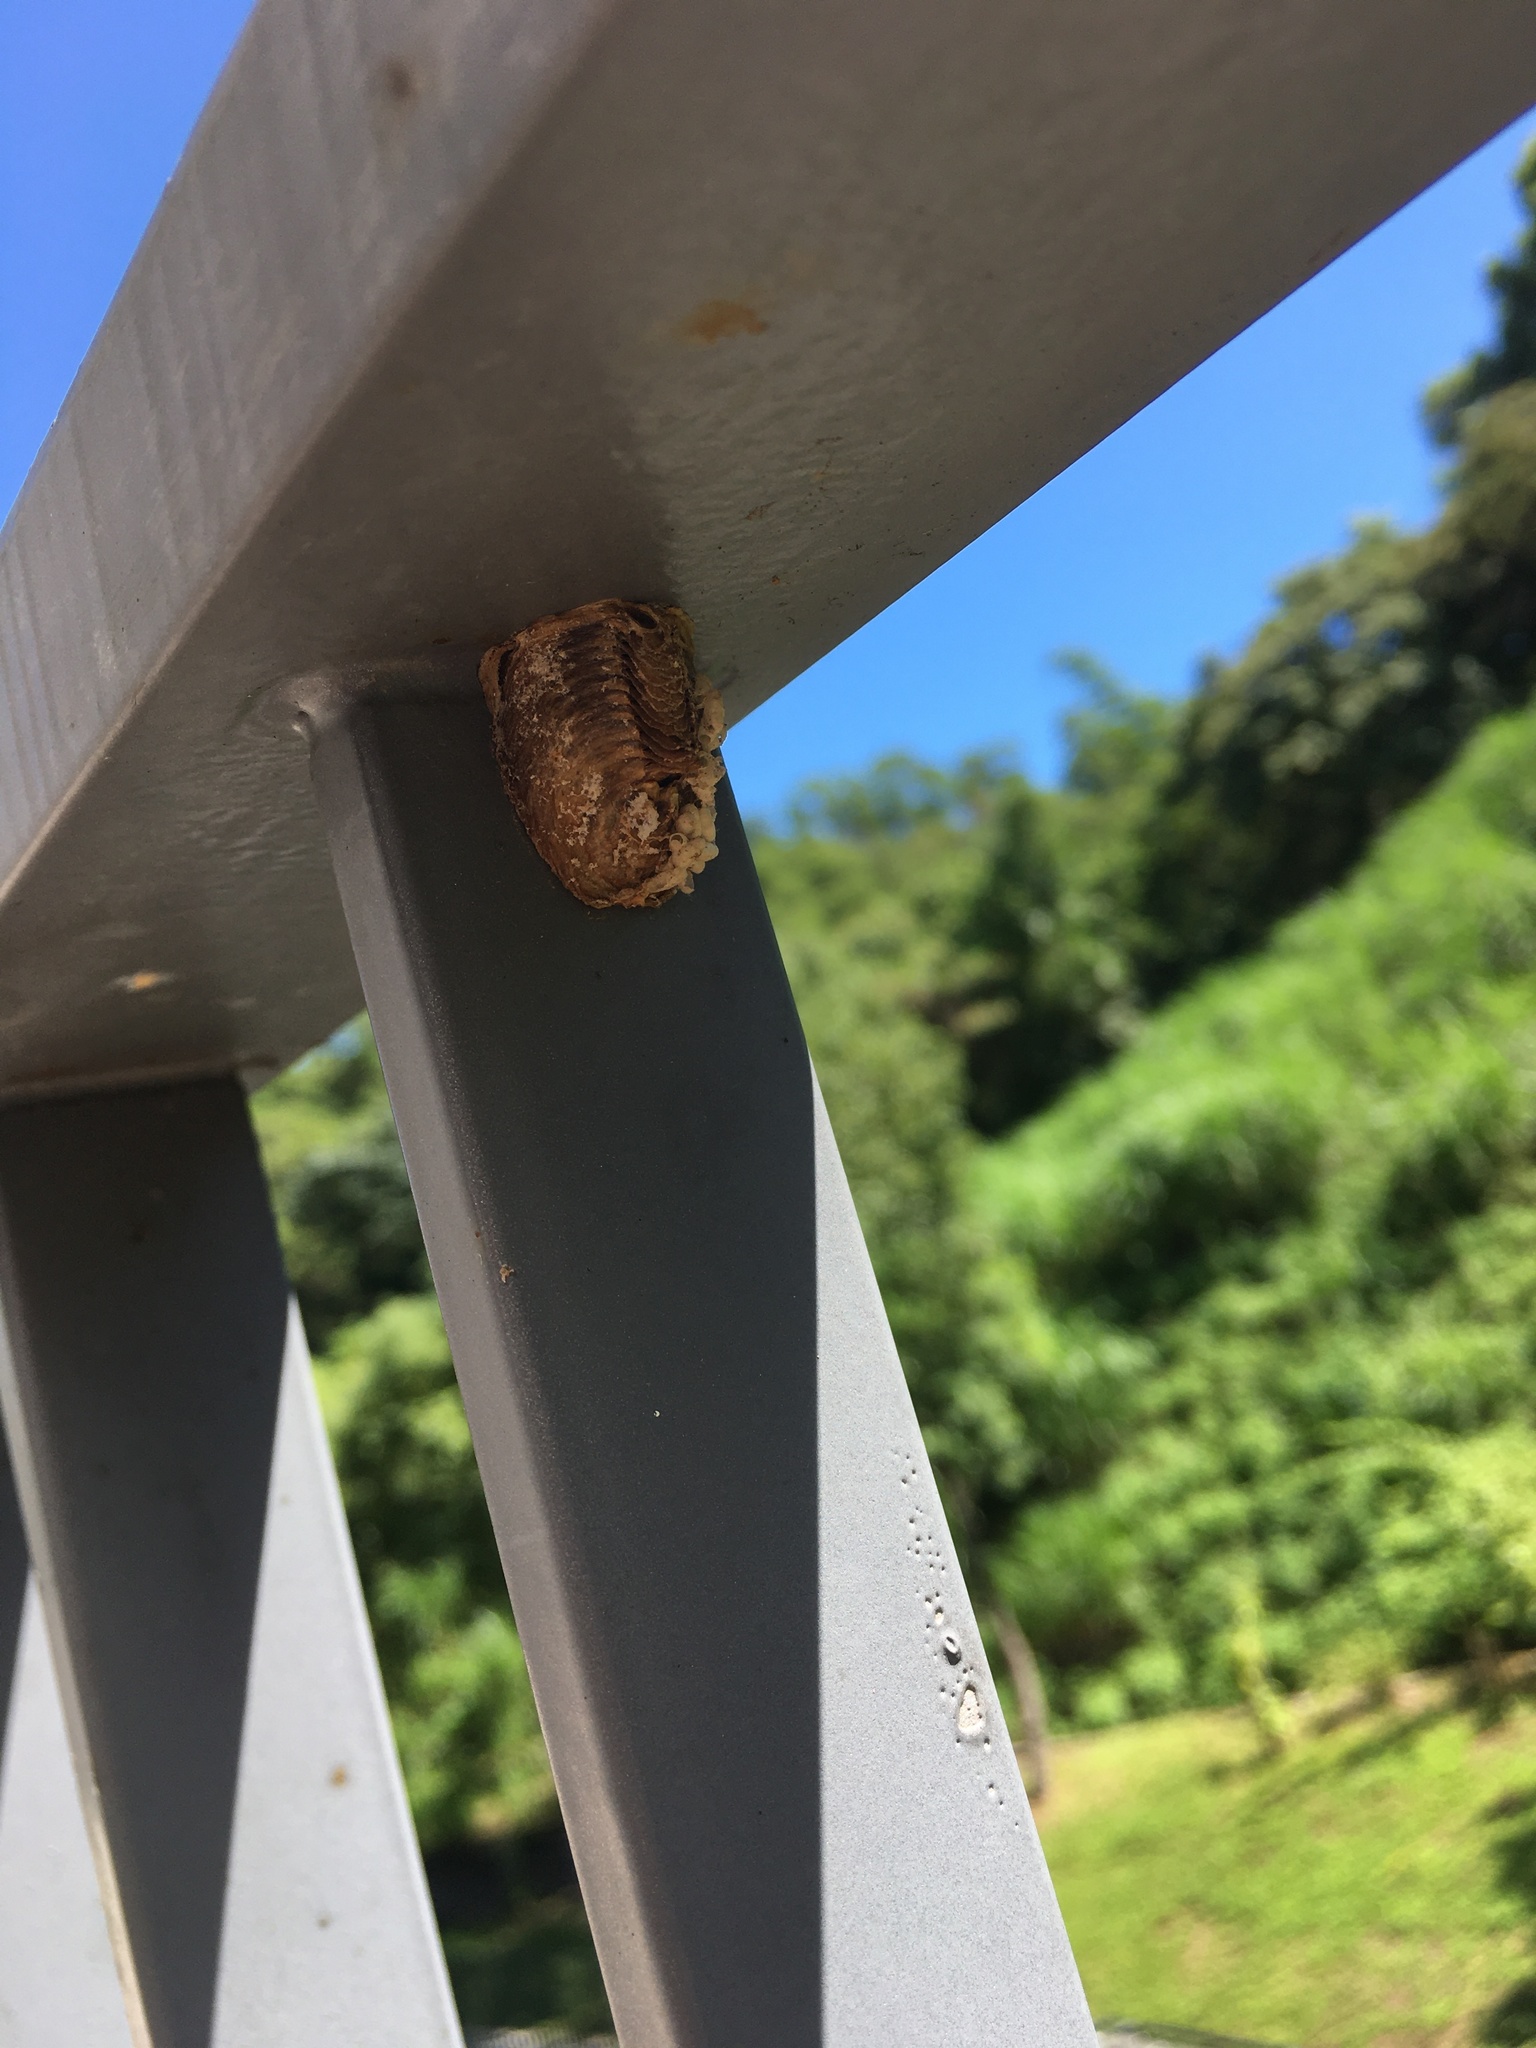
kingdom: Animalia
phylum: Arthropoda
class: Insecta
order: Mantodea
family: Mantidae
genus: Hierodula
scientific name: Hierodula patellifera
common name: Asian mantis
